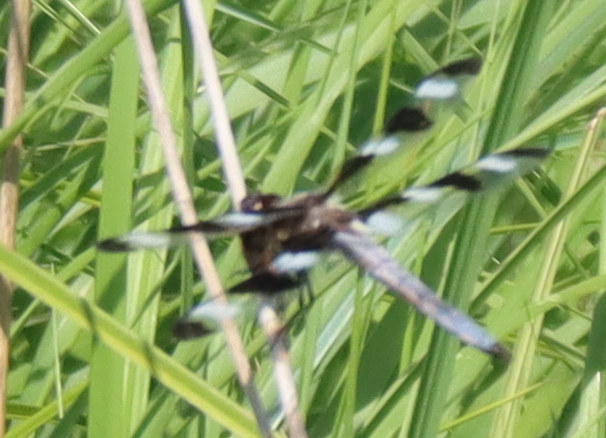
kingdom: Animalia
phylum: Arthropoda
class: Insecta
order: Odonata
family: Libellulidae
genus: Libellula
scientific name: Libellula pulchella
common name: Twelve-spotted skimmer
